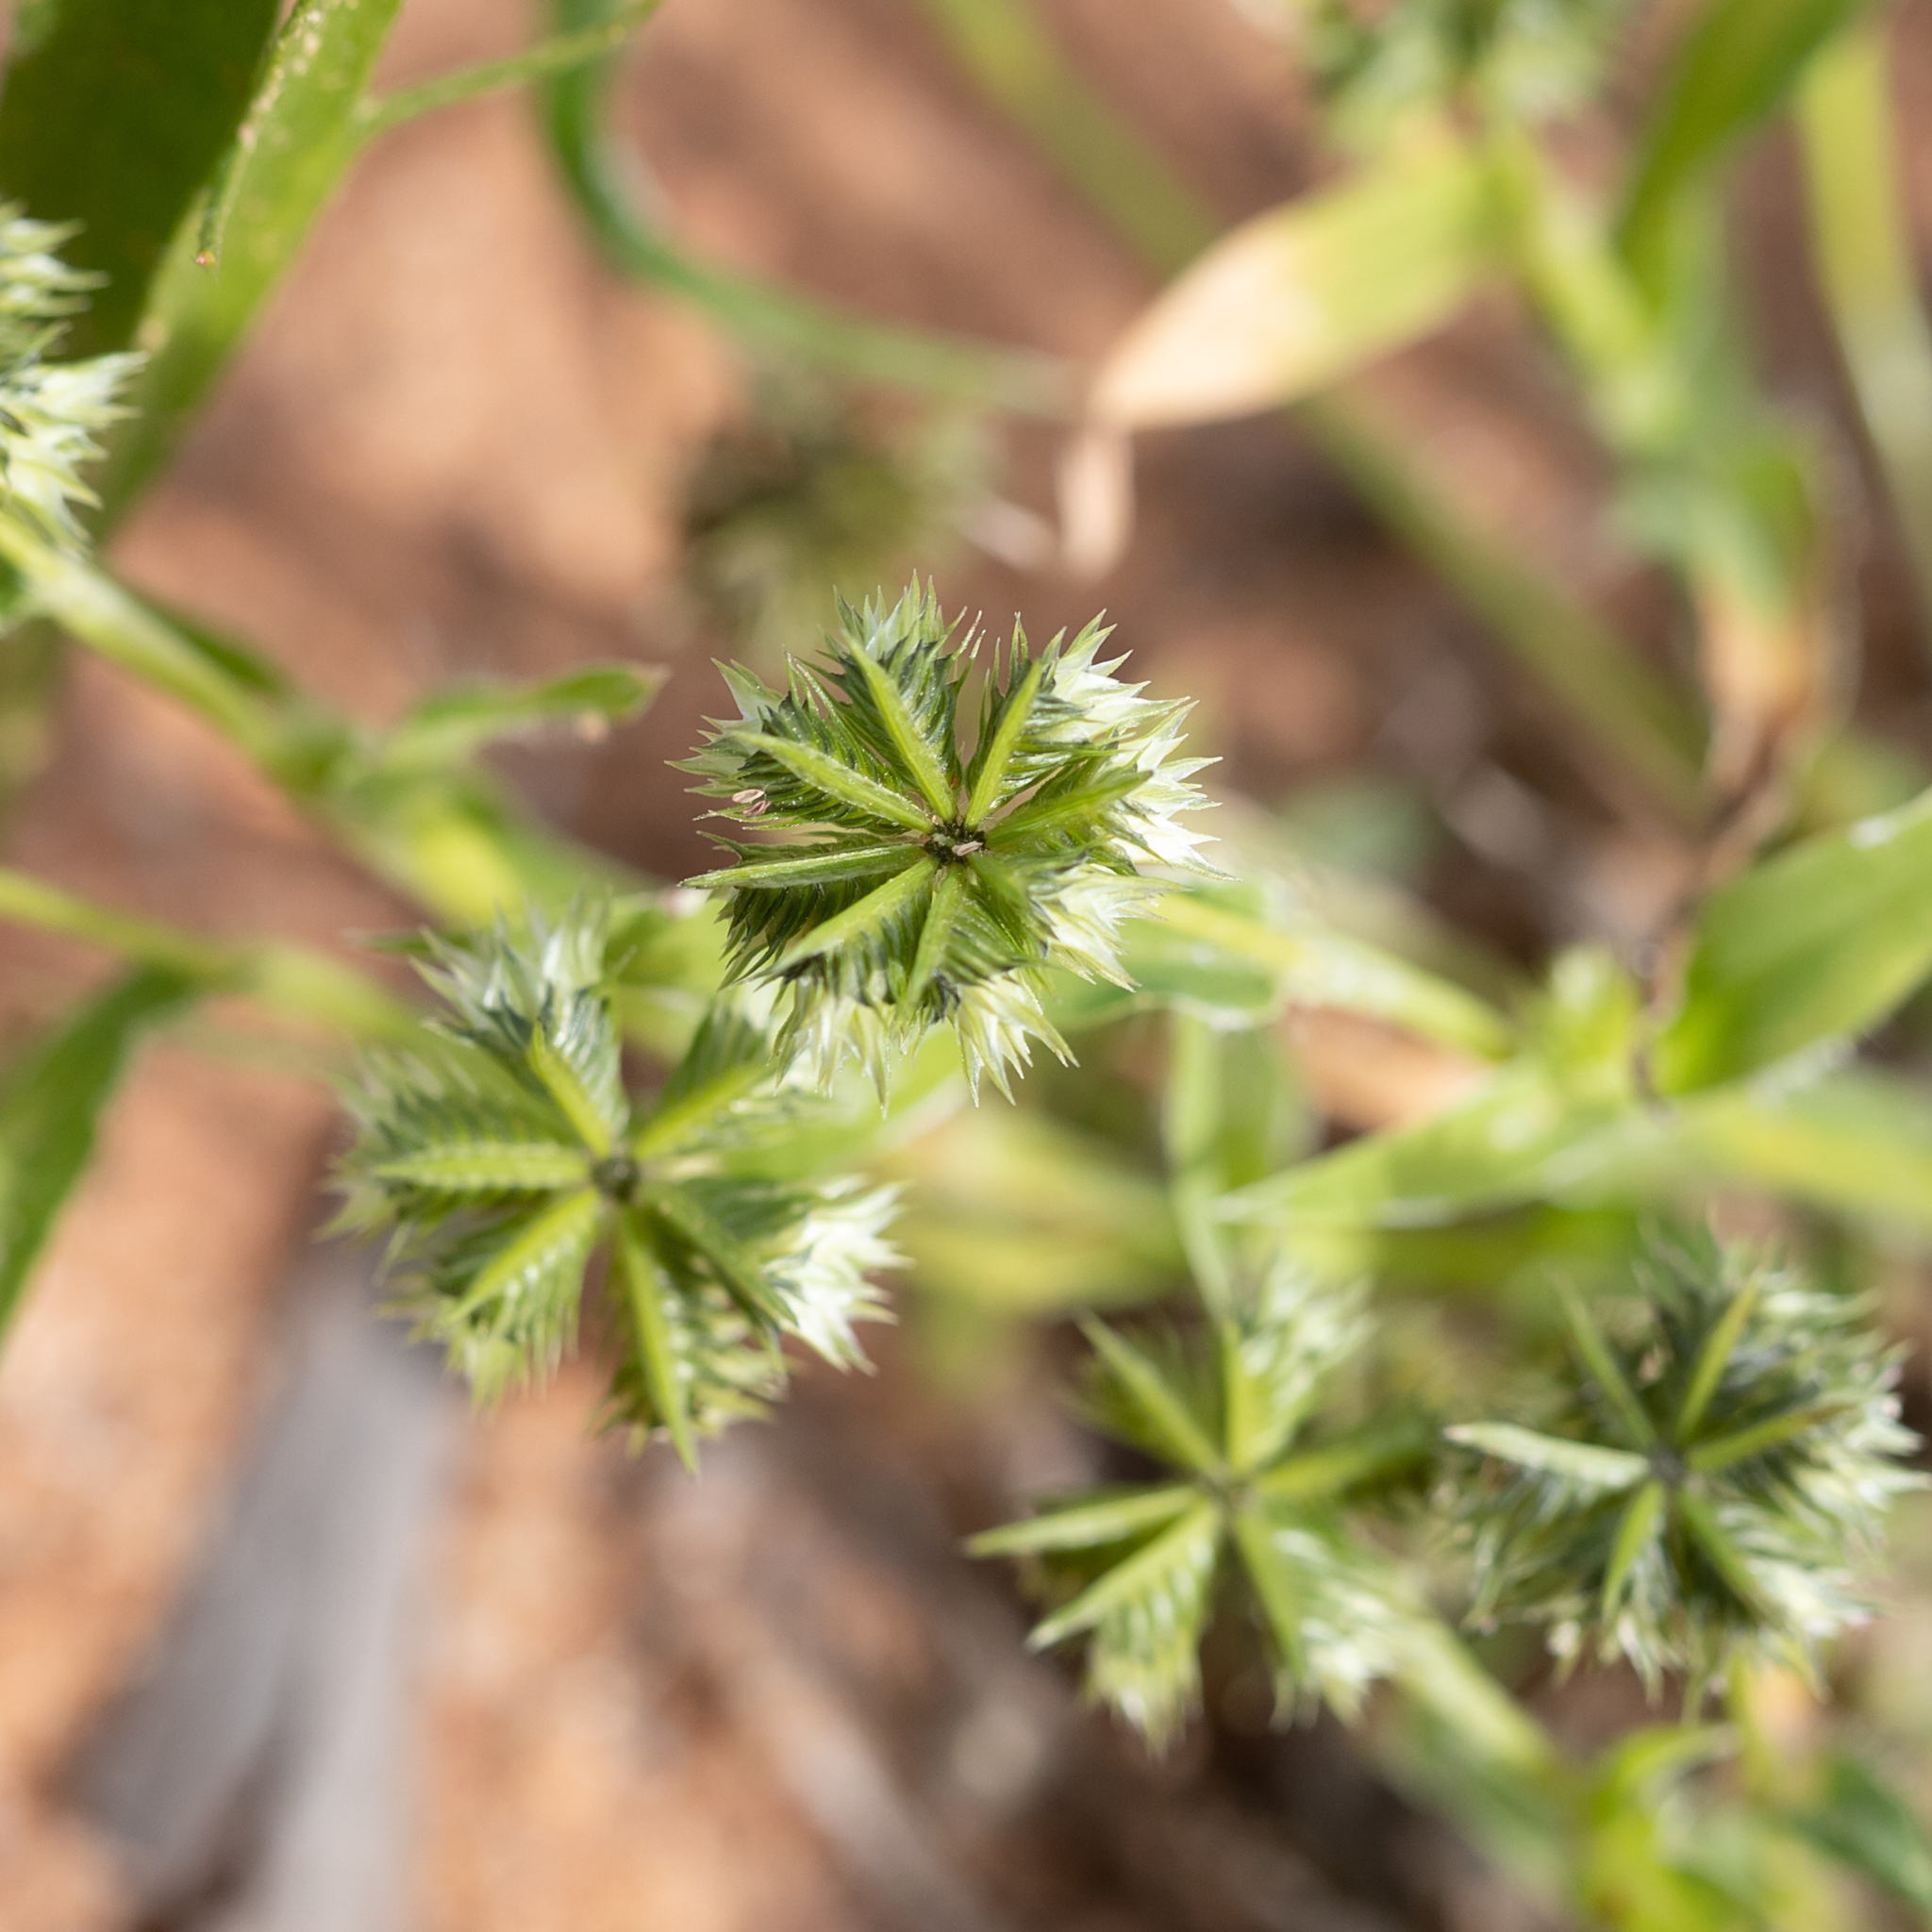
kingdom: Plantae
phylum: Tracheophyta
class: Liliopsida
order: Poales
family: Poaceae
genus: Dactyloctenium
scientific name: Dactyloctenium radulans
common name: Button-grass
